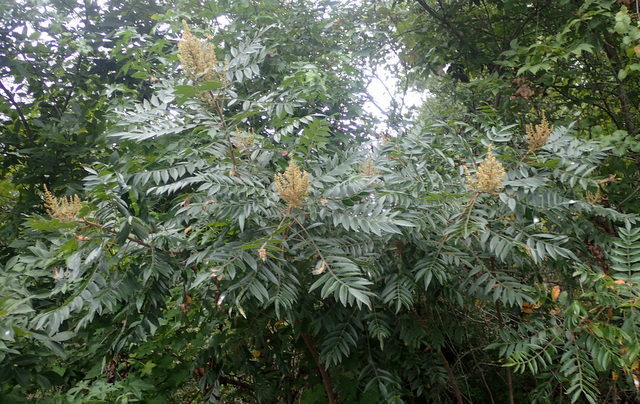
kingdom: Plantae
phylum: Tracheophyta
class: Magnoliopsida
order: Sapindales
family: Anacardiaceae
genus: Rhus
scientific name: Rhus copallina
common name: Shining sumac
